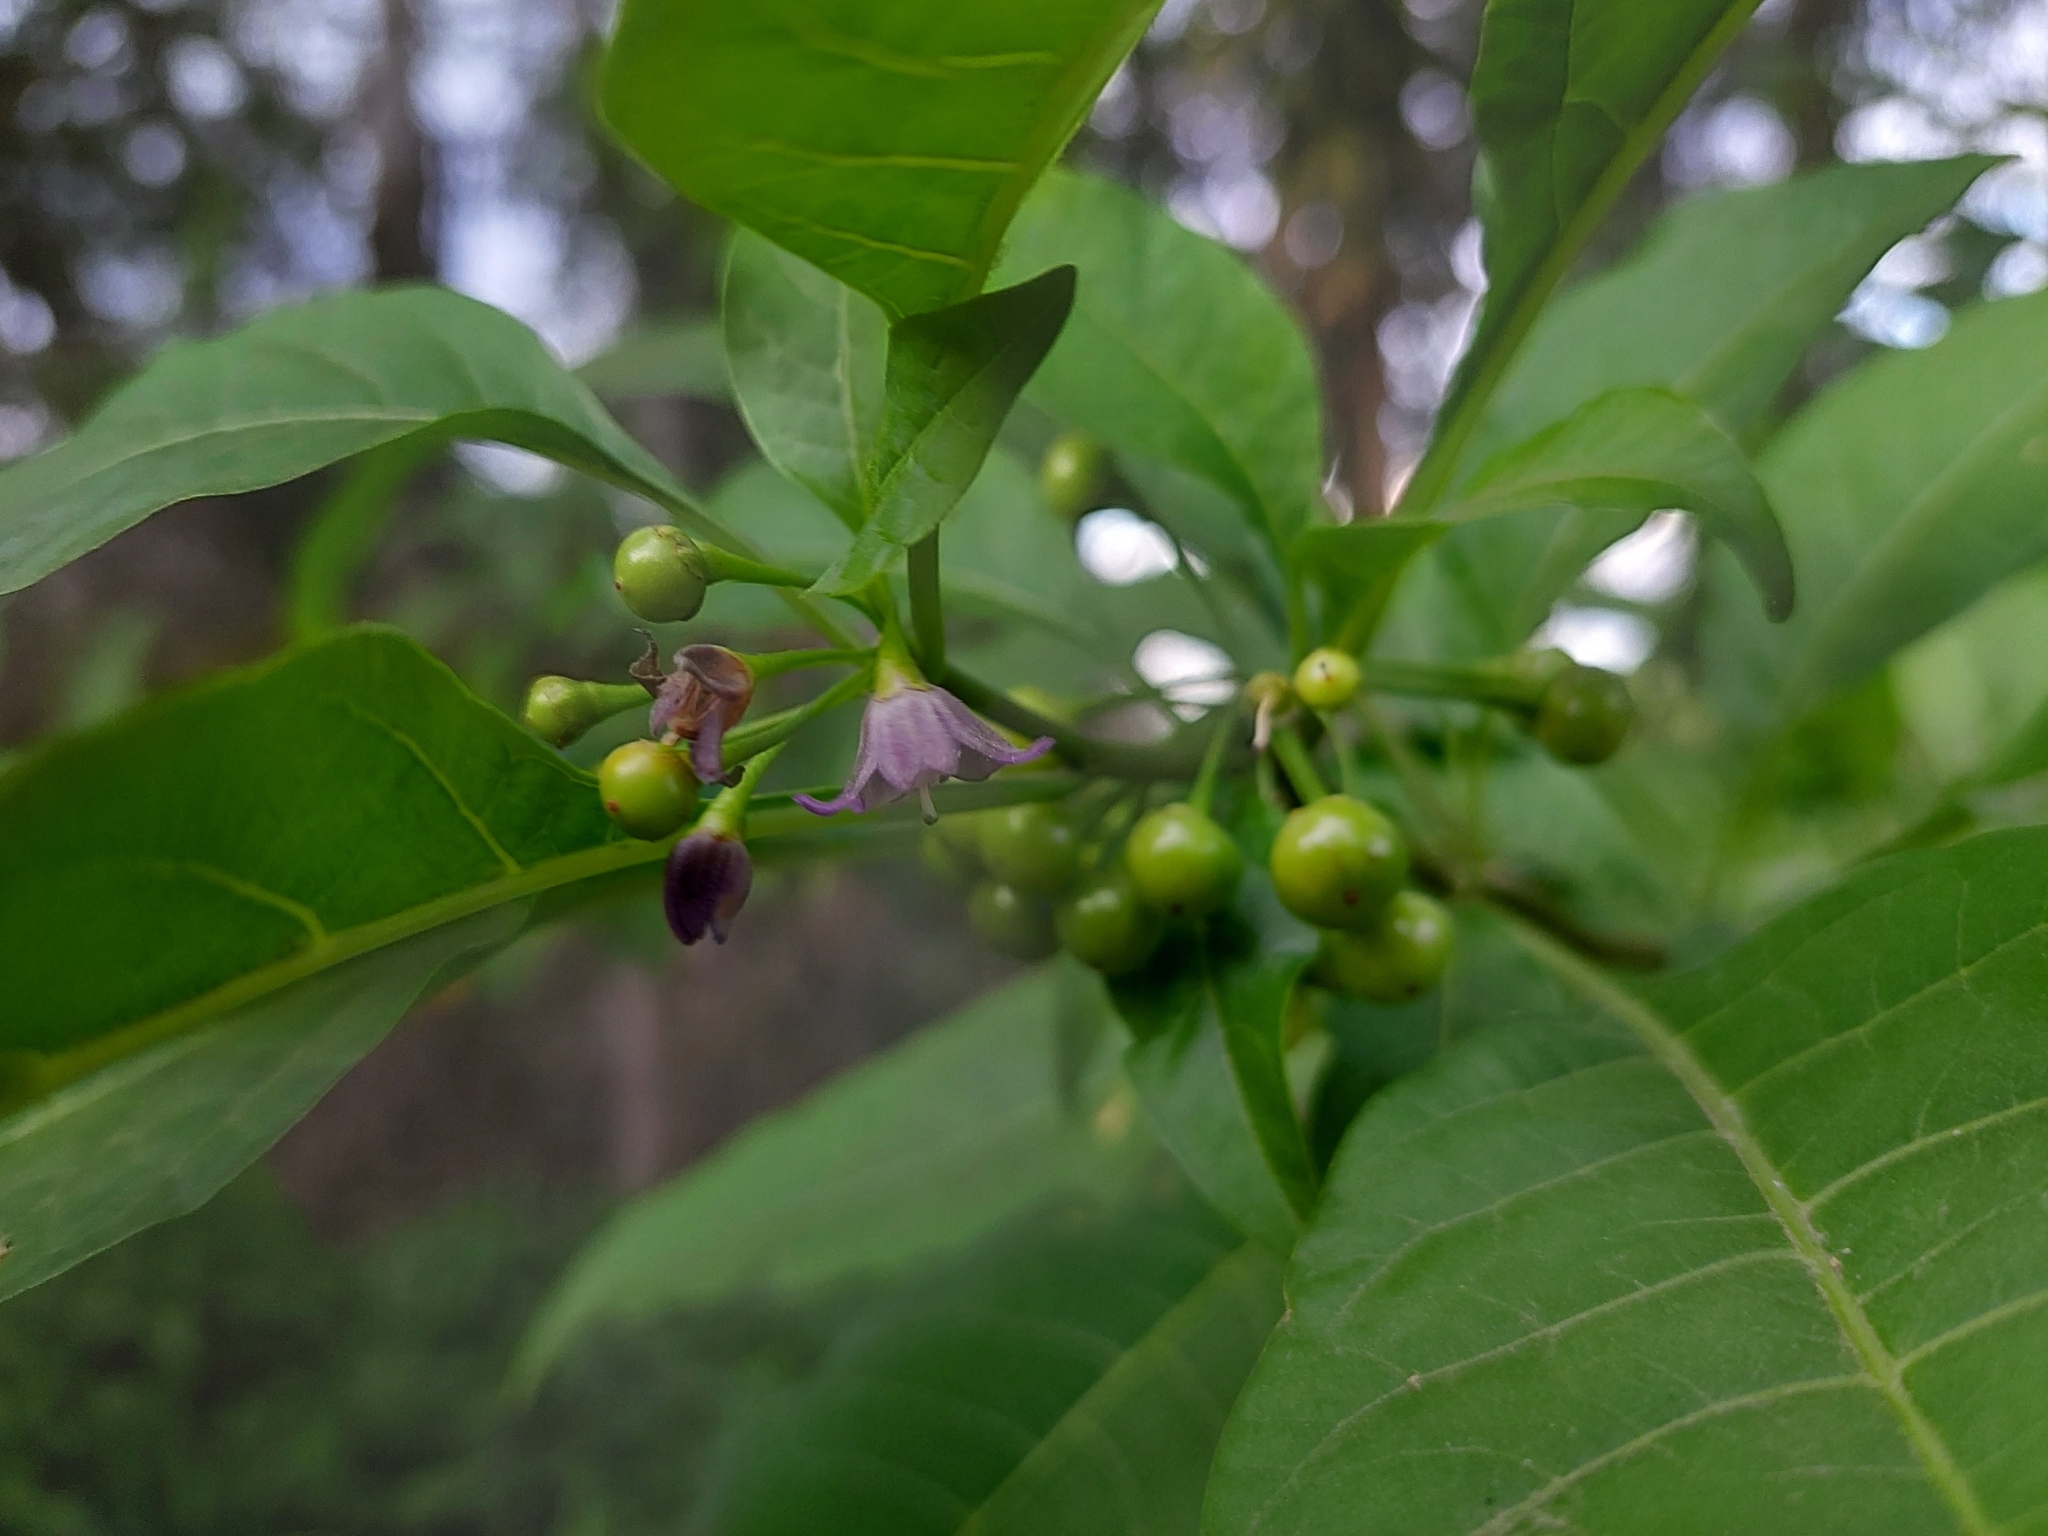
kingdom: Plantae
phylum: Tracheophyta
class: Magnoliopsida
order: Solanales
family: Solanaceae
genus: Vassobia
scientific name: Vassobia breviflora
